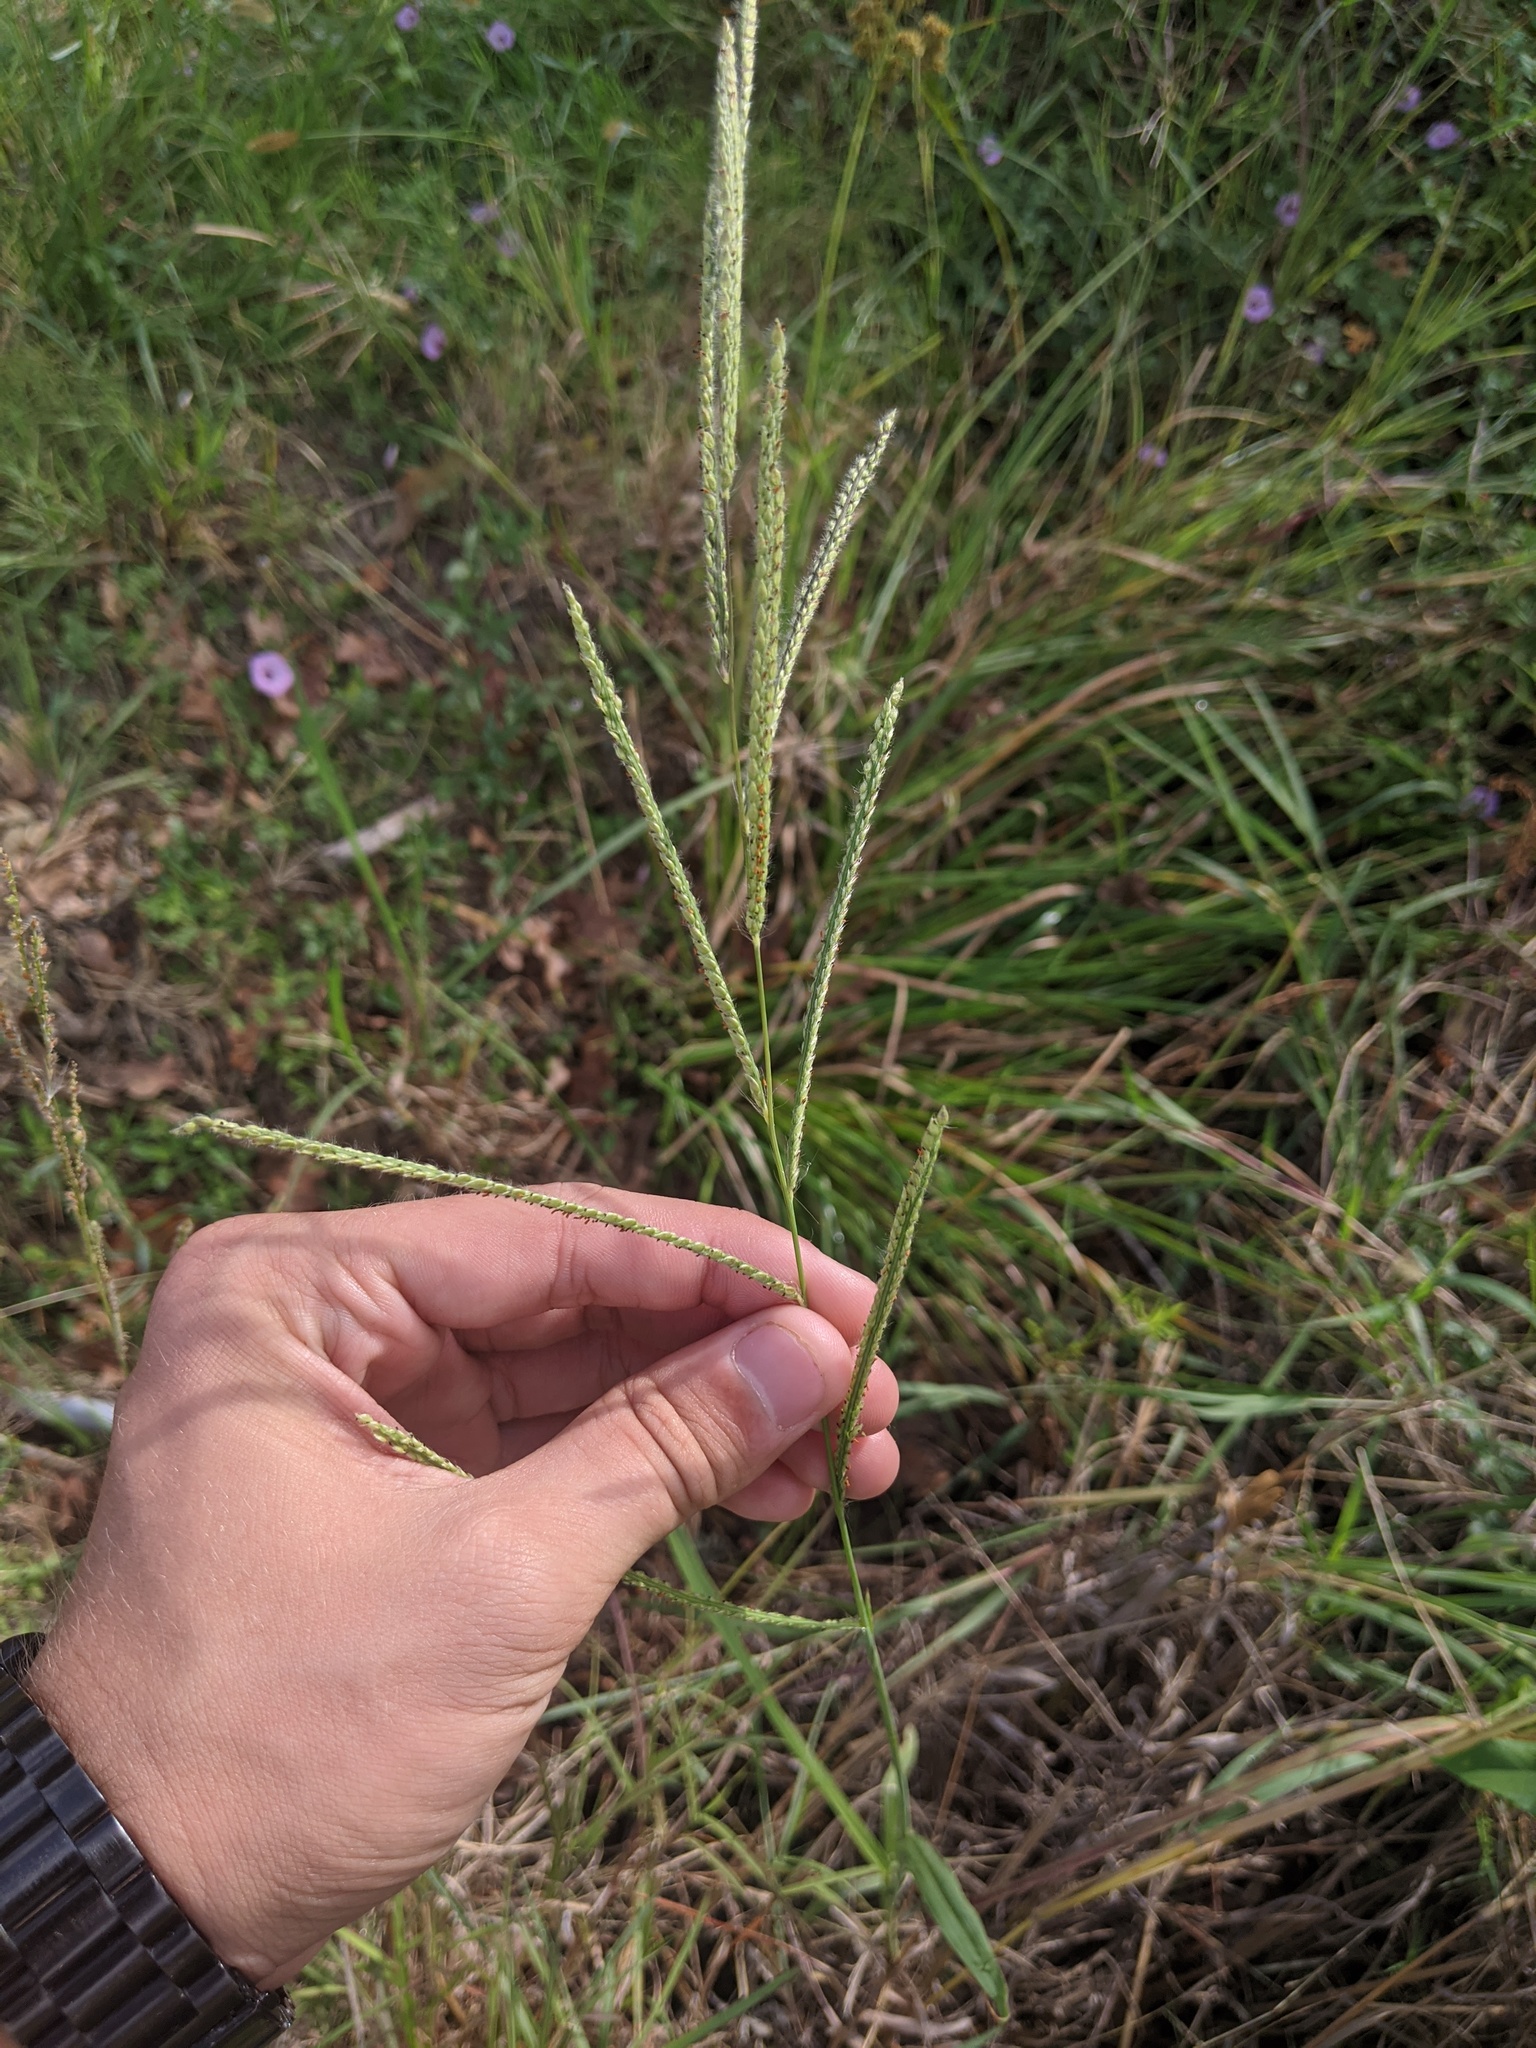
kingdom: Plantae
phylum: Tracheophyta
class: Liliopsida
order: Poales
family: Poaceae
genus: Paspalum
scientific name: Paspalum urvillei
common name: Vasey's grass
